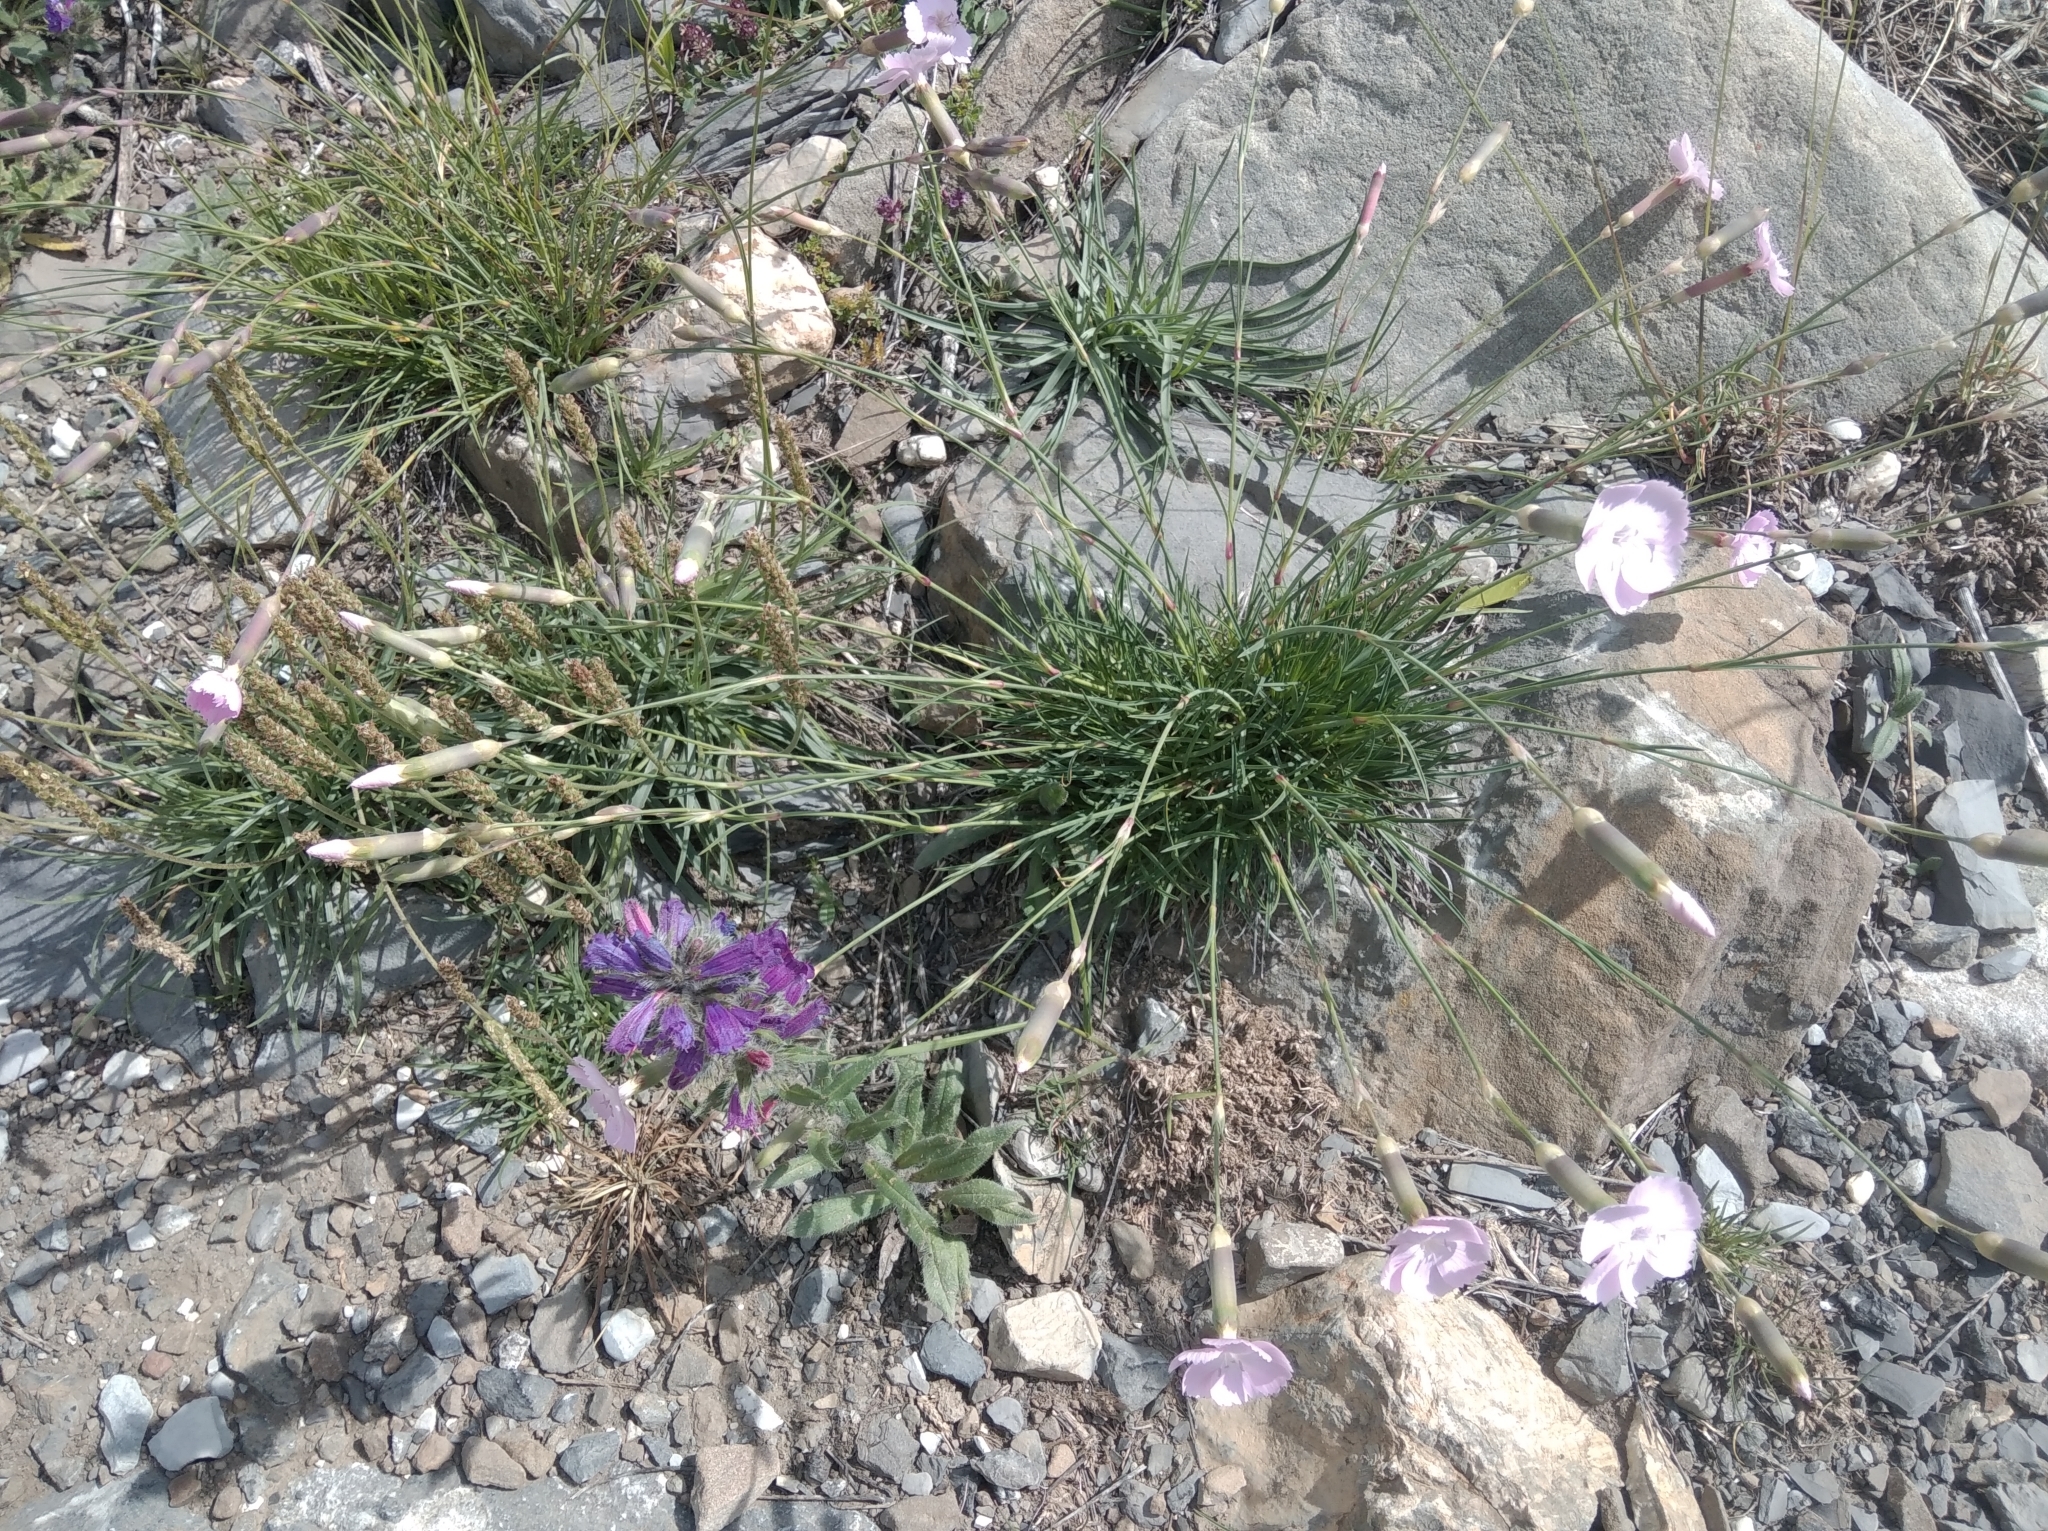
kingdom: Plantae
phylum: Tracheophyta
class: Magnoliopsida
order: Caryophyllales
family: Caryophyllaceae
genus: Dianthus
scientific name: Dianthus sylvestris
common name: Wood pink
